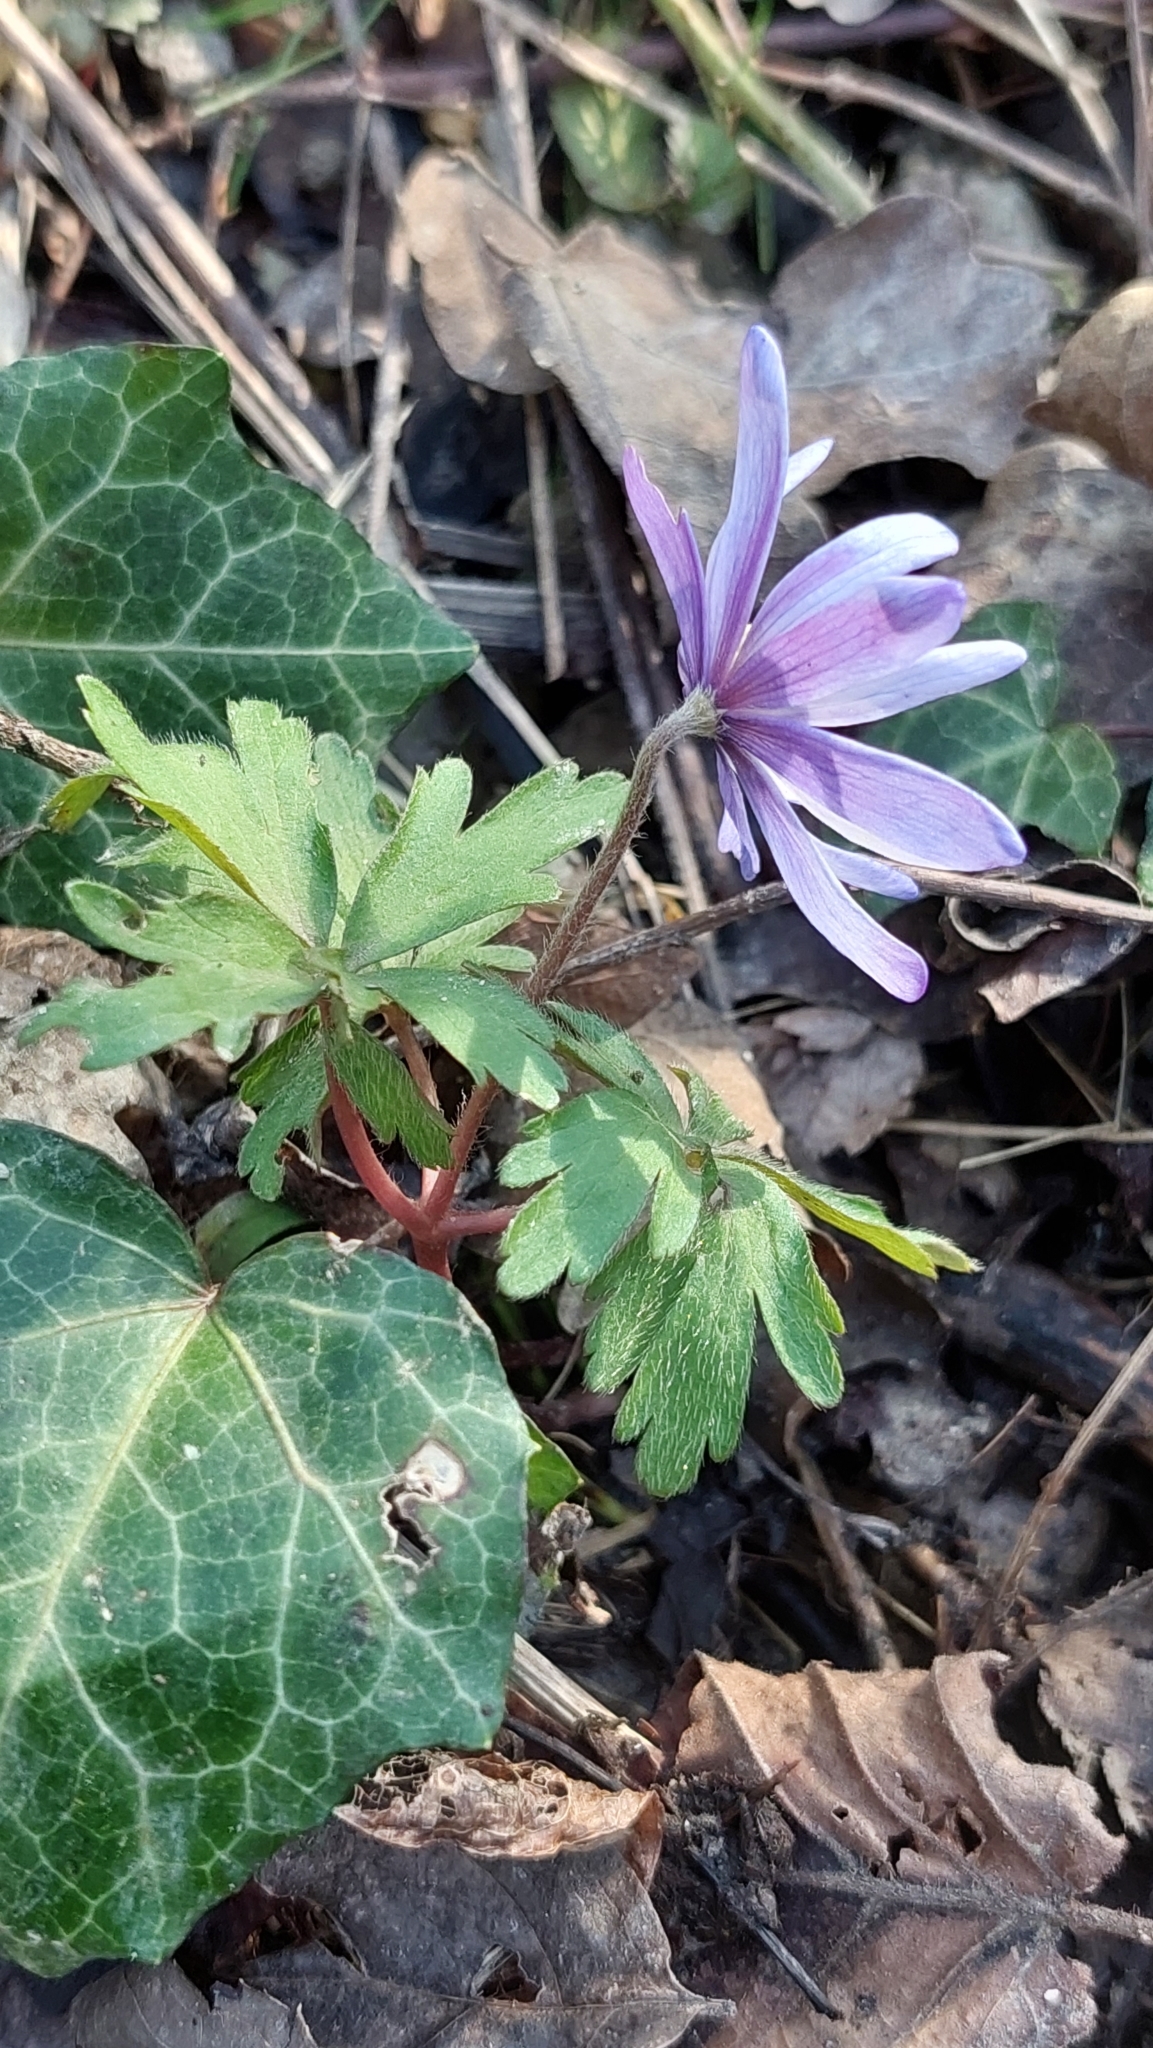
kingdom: Plantae
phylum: Tracheophyta
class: Magnoliopsida
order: Ranunculales
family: Ranunculaceae
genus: Anemone
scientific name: Anemone blanda
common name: Balkan anemone
